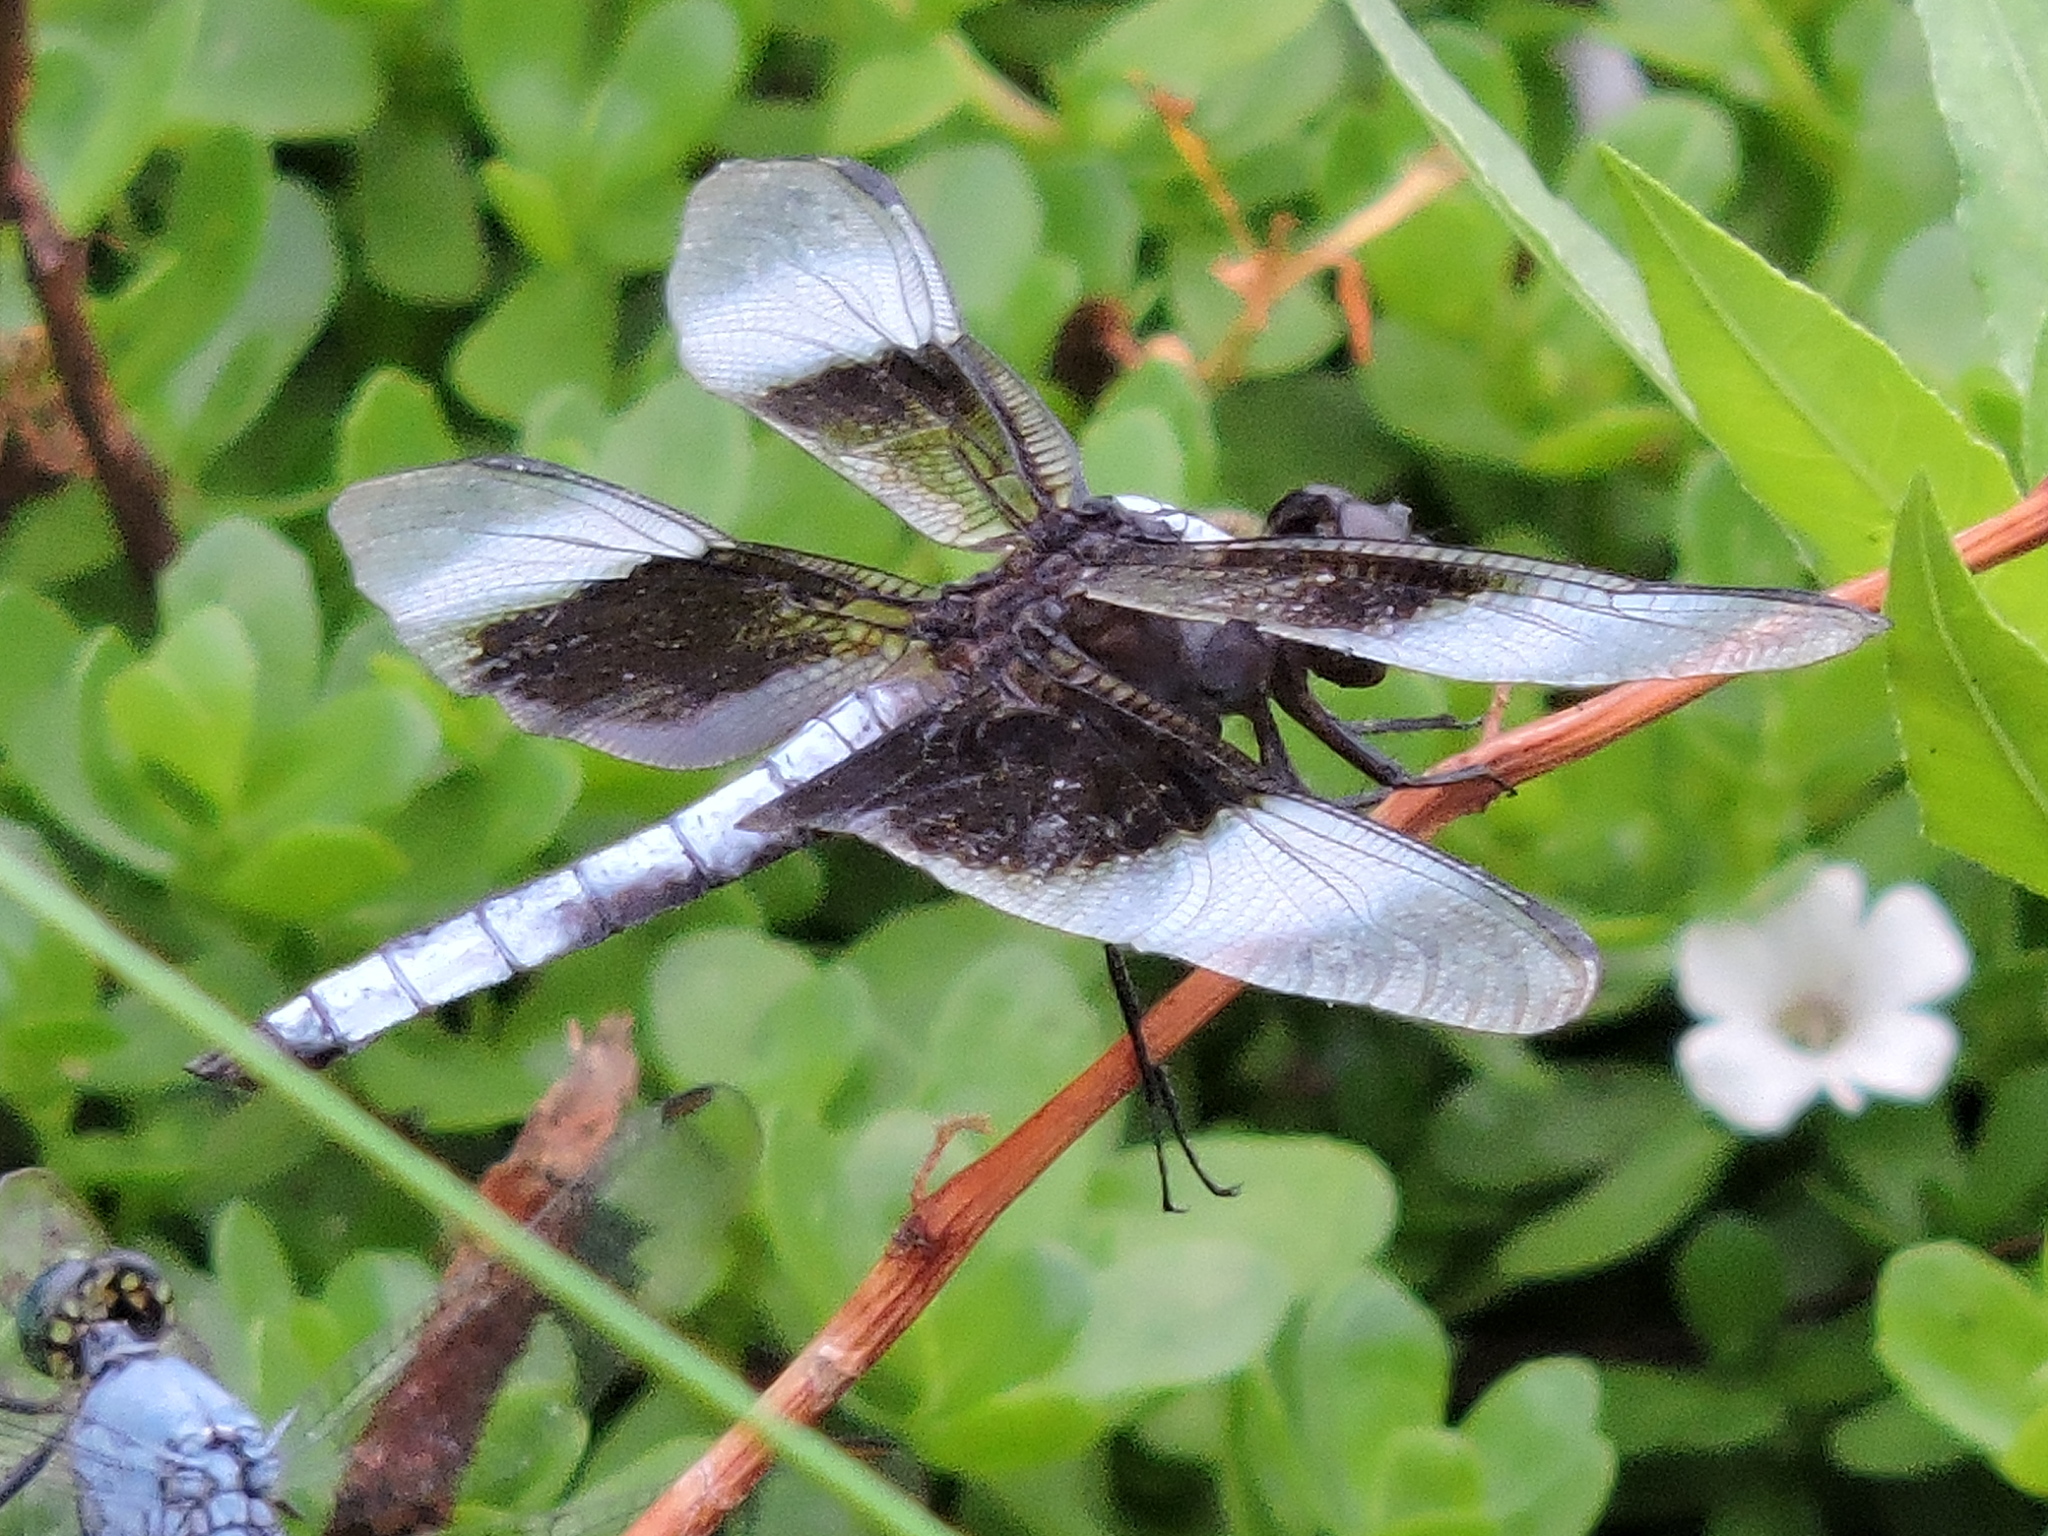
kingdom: Animalia
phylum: Arthropoda
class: Insecta
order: Odonata
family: Libellulidae
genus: Libellula
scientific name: Libellula luctuosa
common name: Widow skimmer
